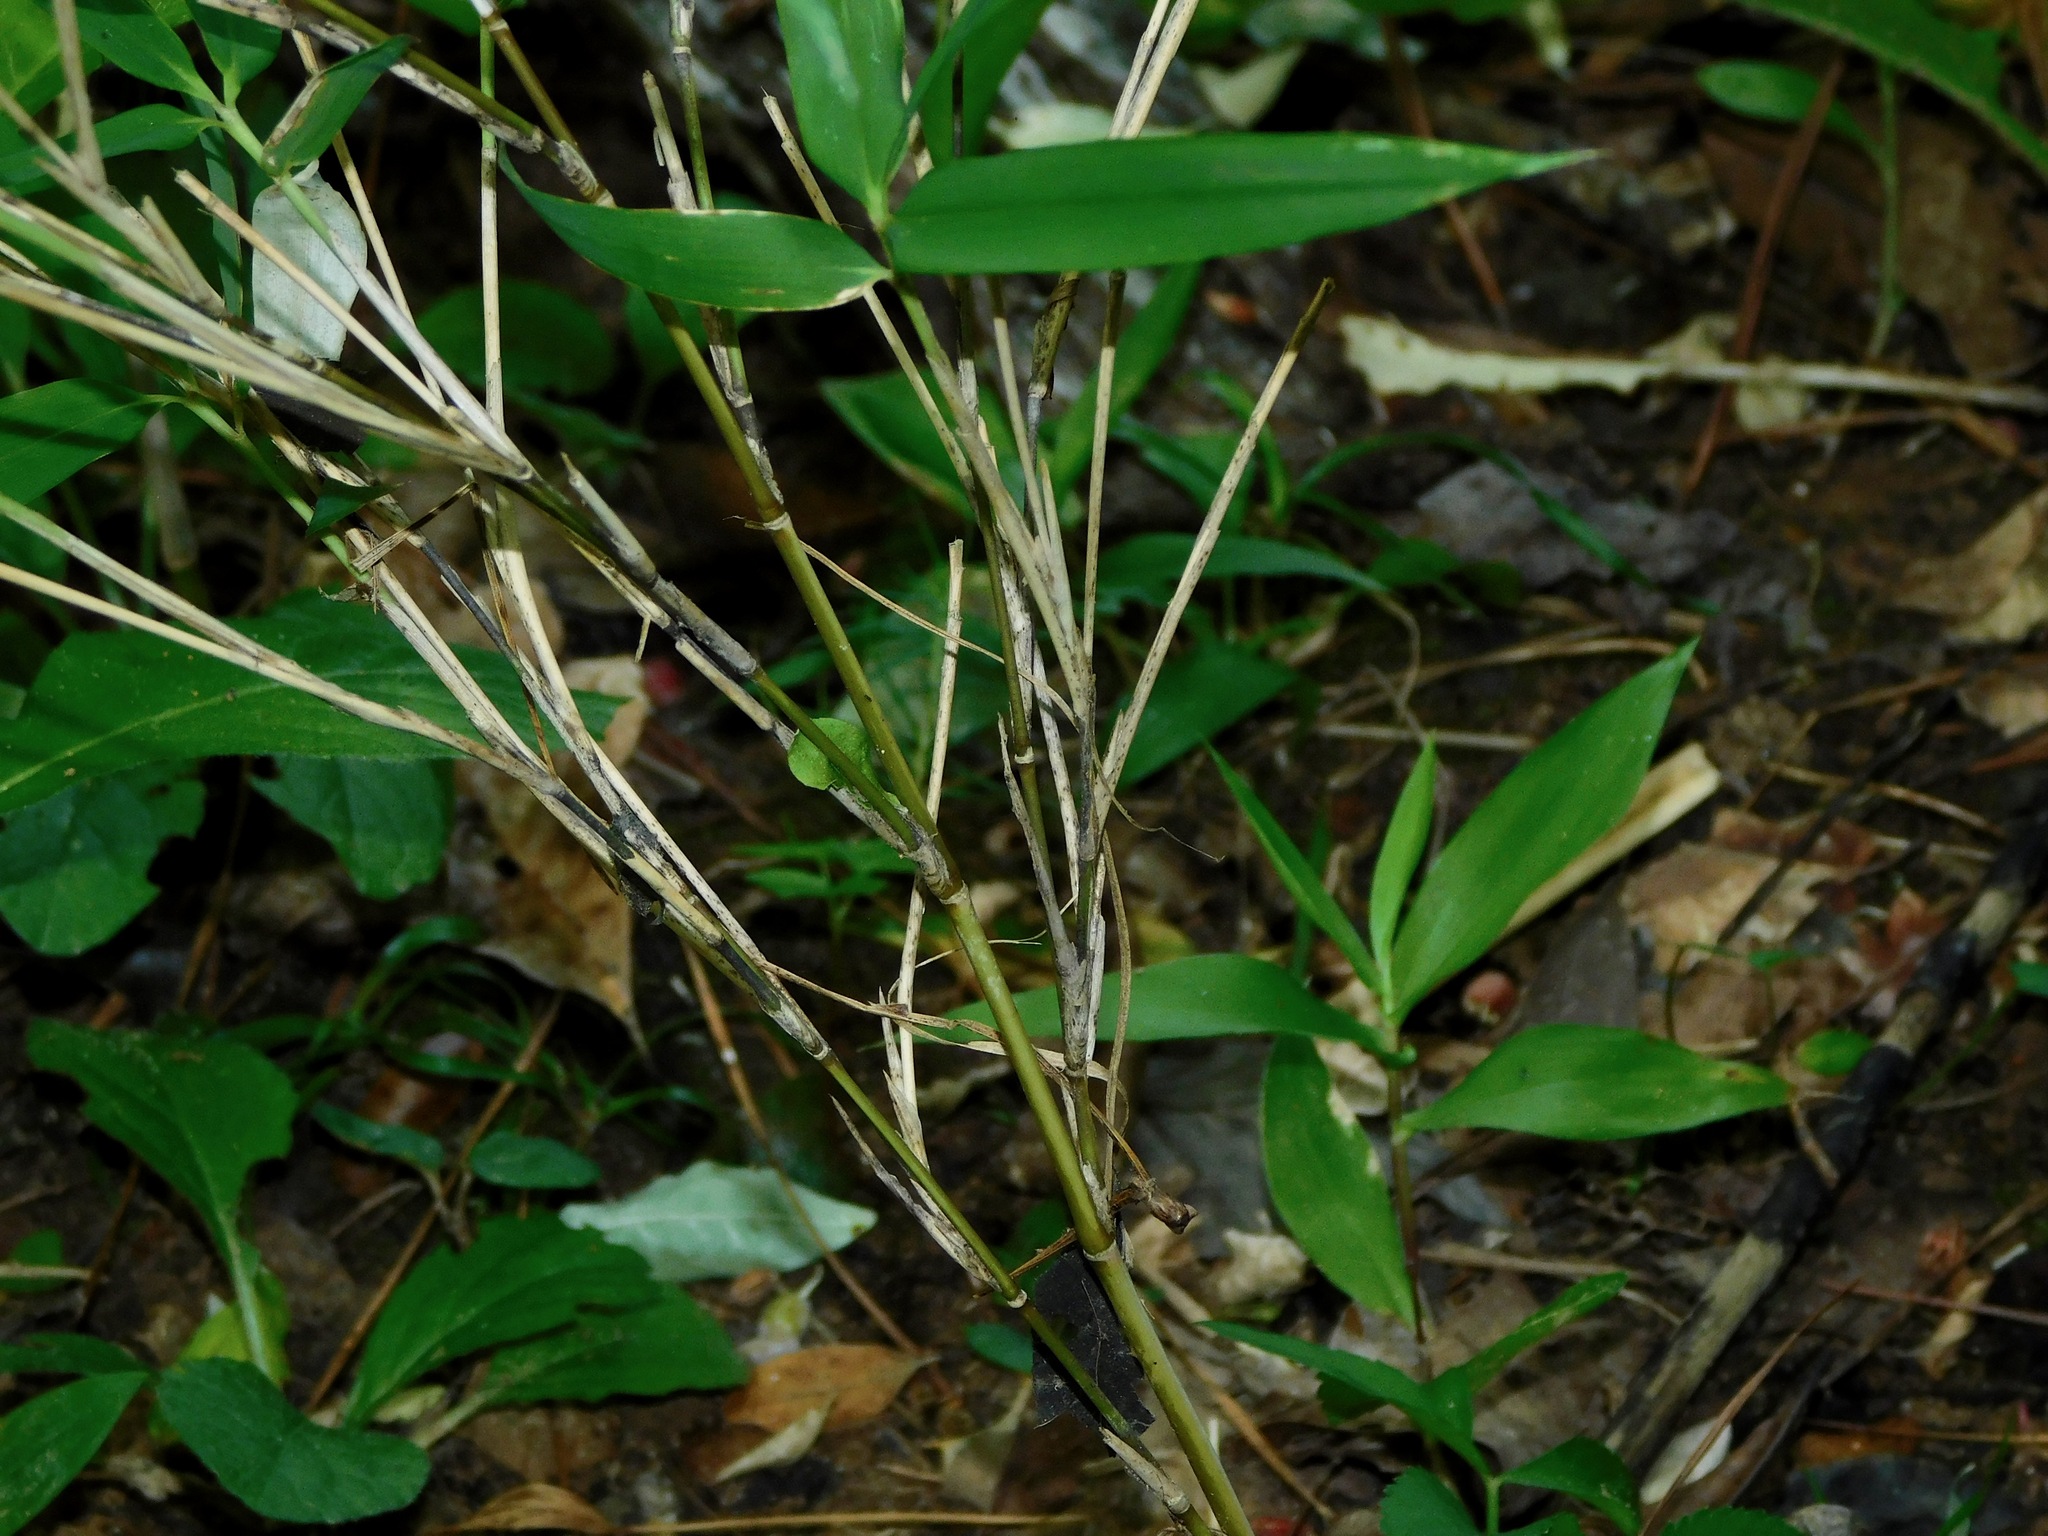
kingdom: Plantae
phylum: Tracheophyta
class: Liliopsida
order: Poales
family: Poaceae
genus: Arundinaria
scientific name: Arundinaria appalachiana
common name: Hill cane
